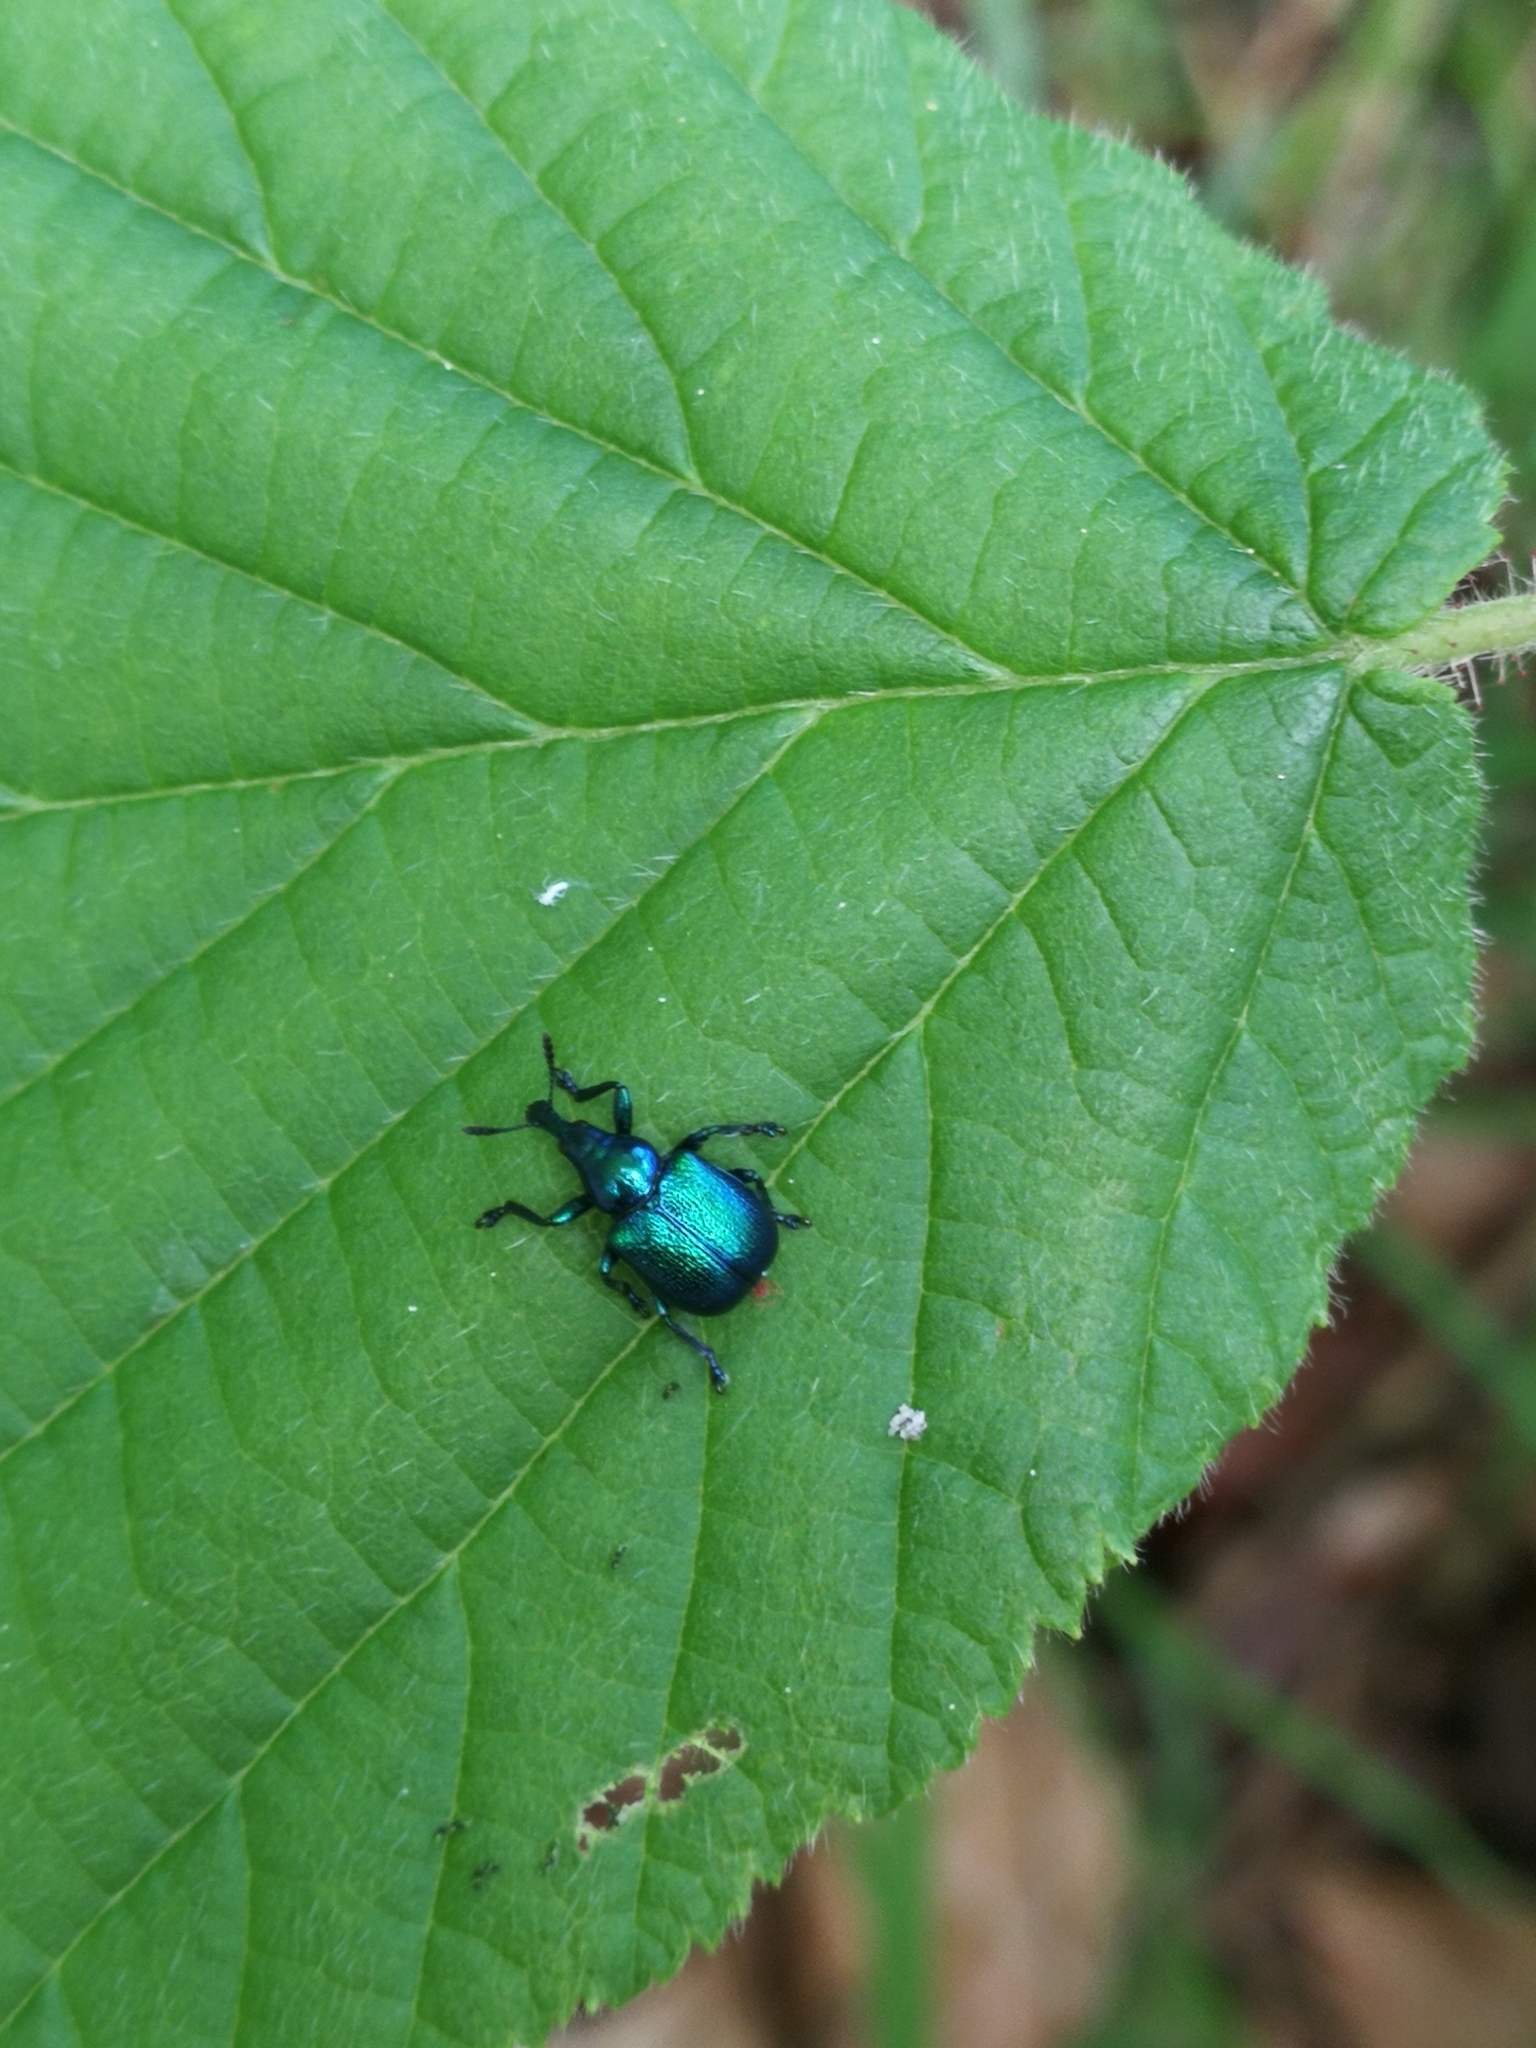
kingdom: Animalia
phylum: Arthropoda
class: Insecta
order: Coleoptera
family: Attelabidae
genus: Byctiscus
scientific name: Byctiscus betulae
